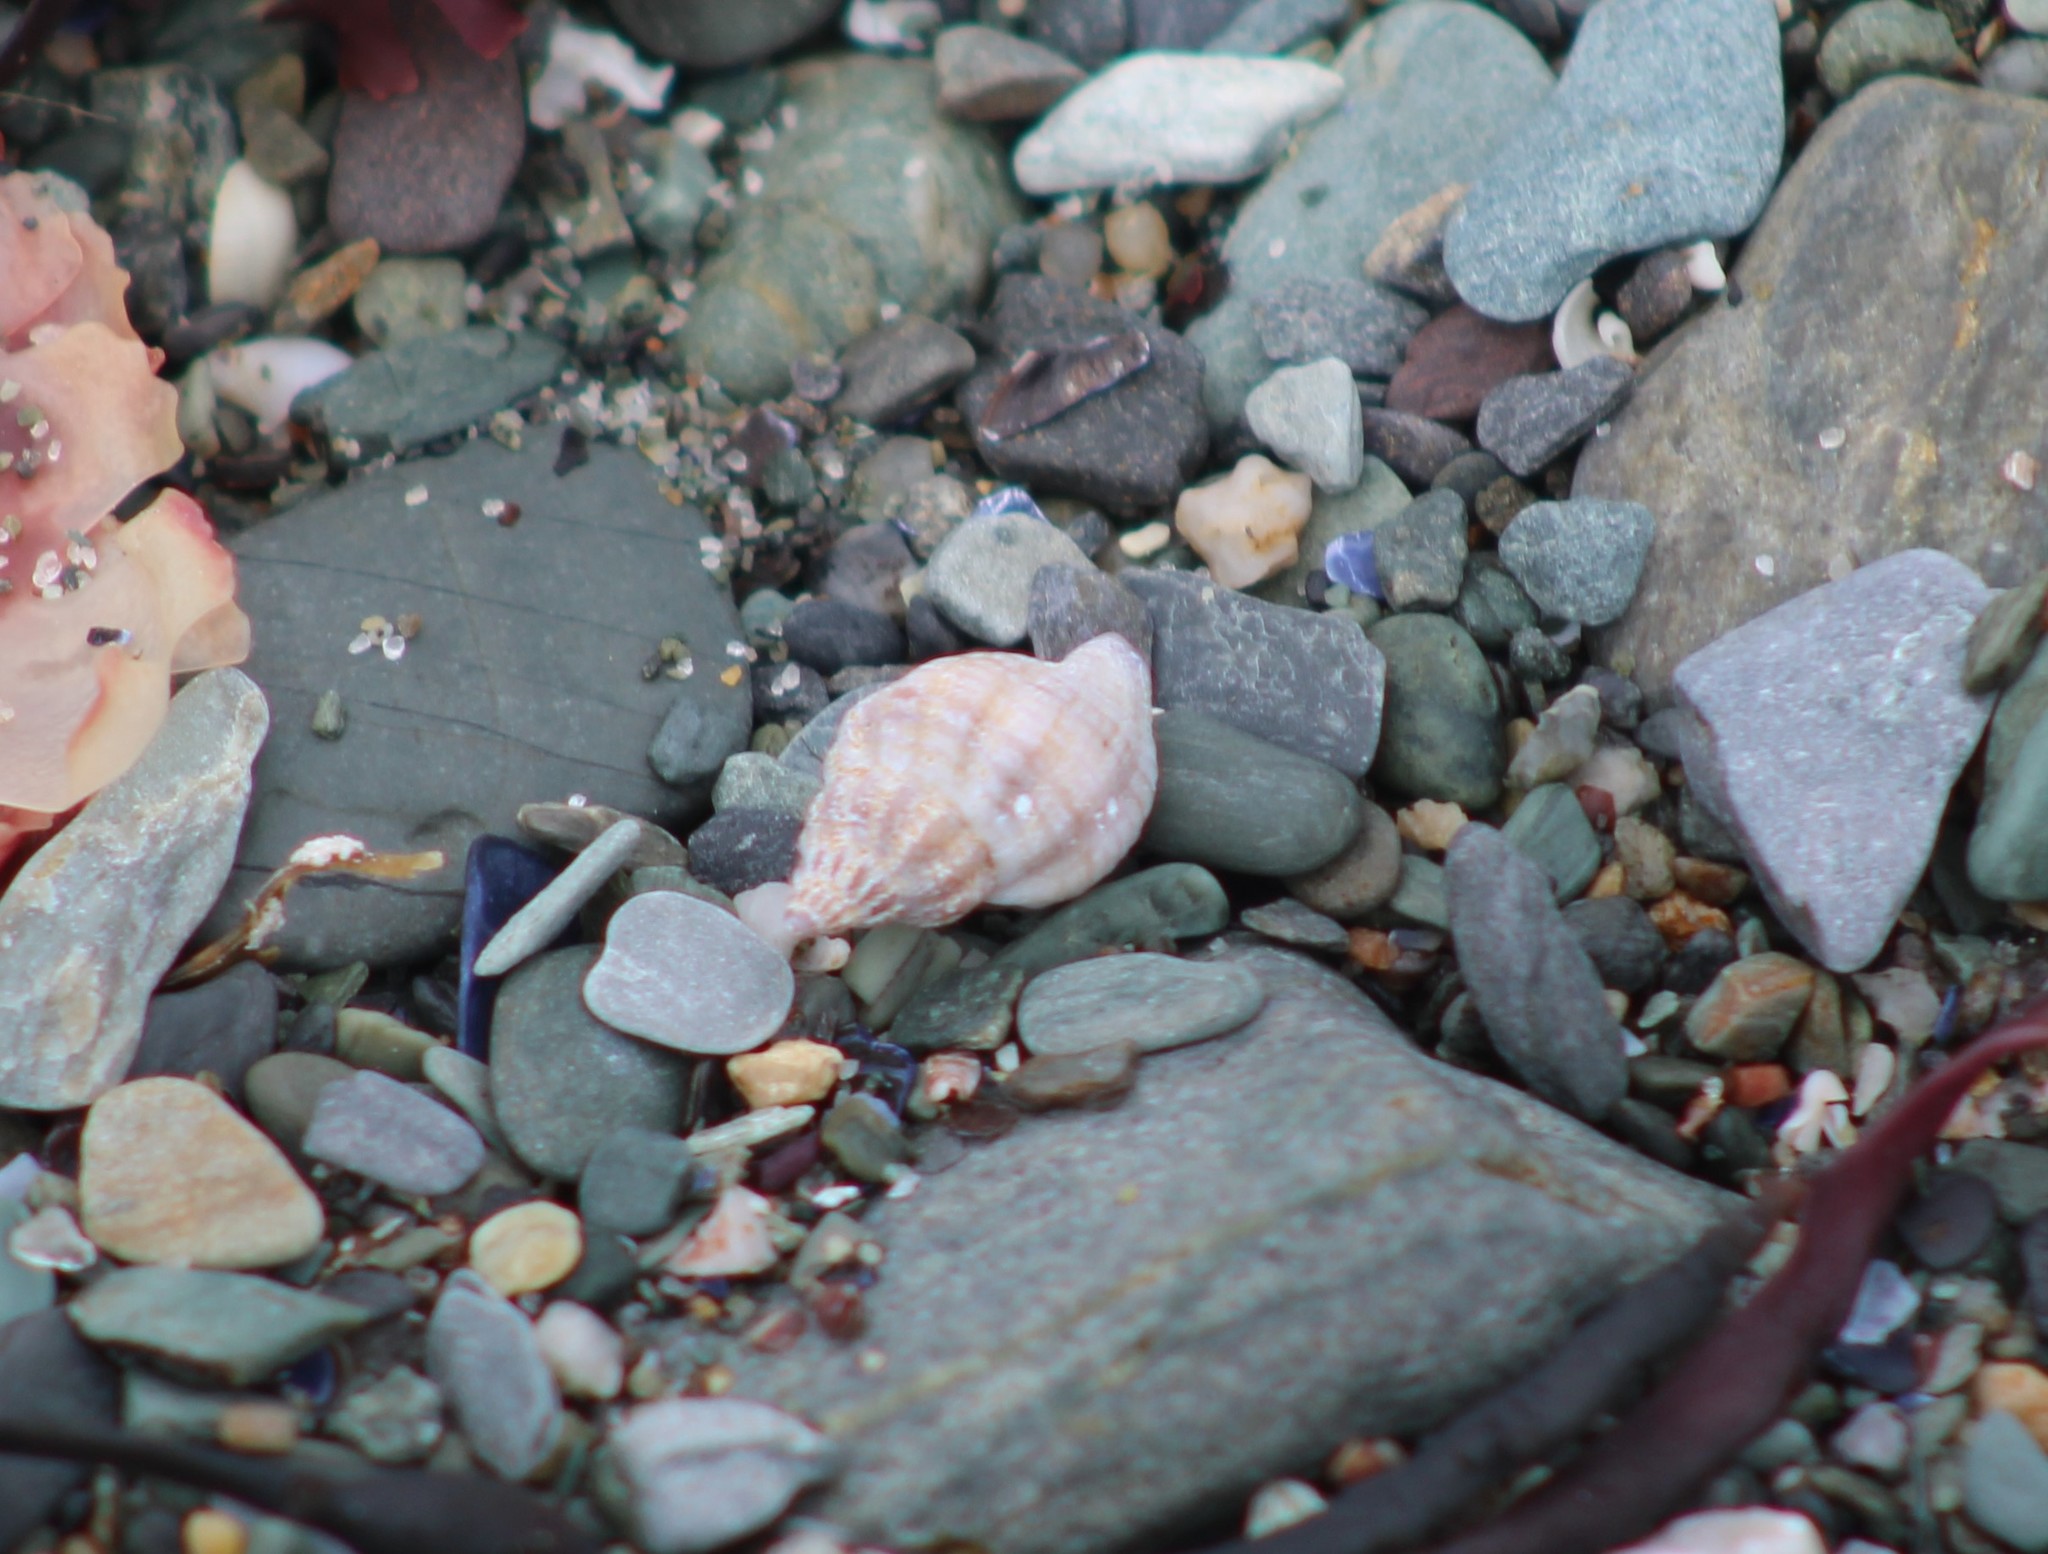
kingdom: Animalia
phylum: Mollusca
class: Gastropoda
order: Neogastropoda
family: Muricidae
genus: Urosalpinx
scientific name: Urosalpinx cinerea
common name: American sting winkle
